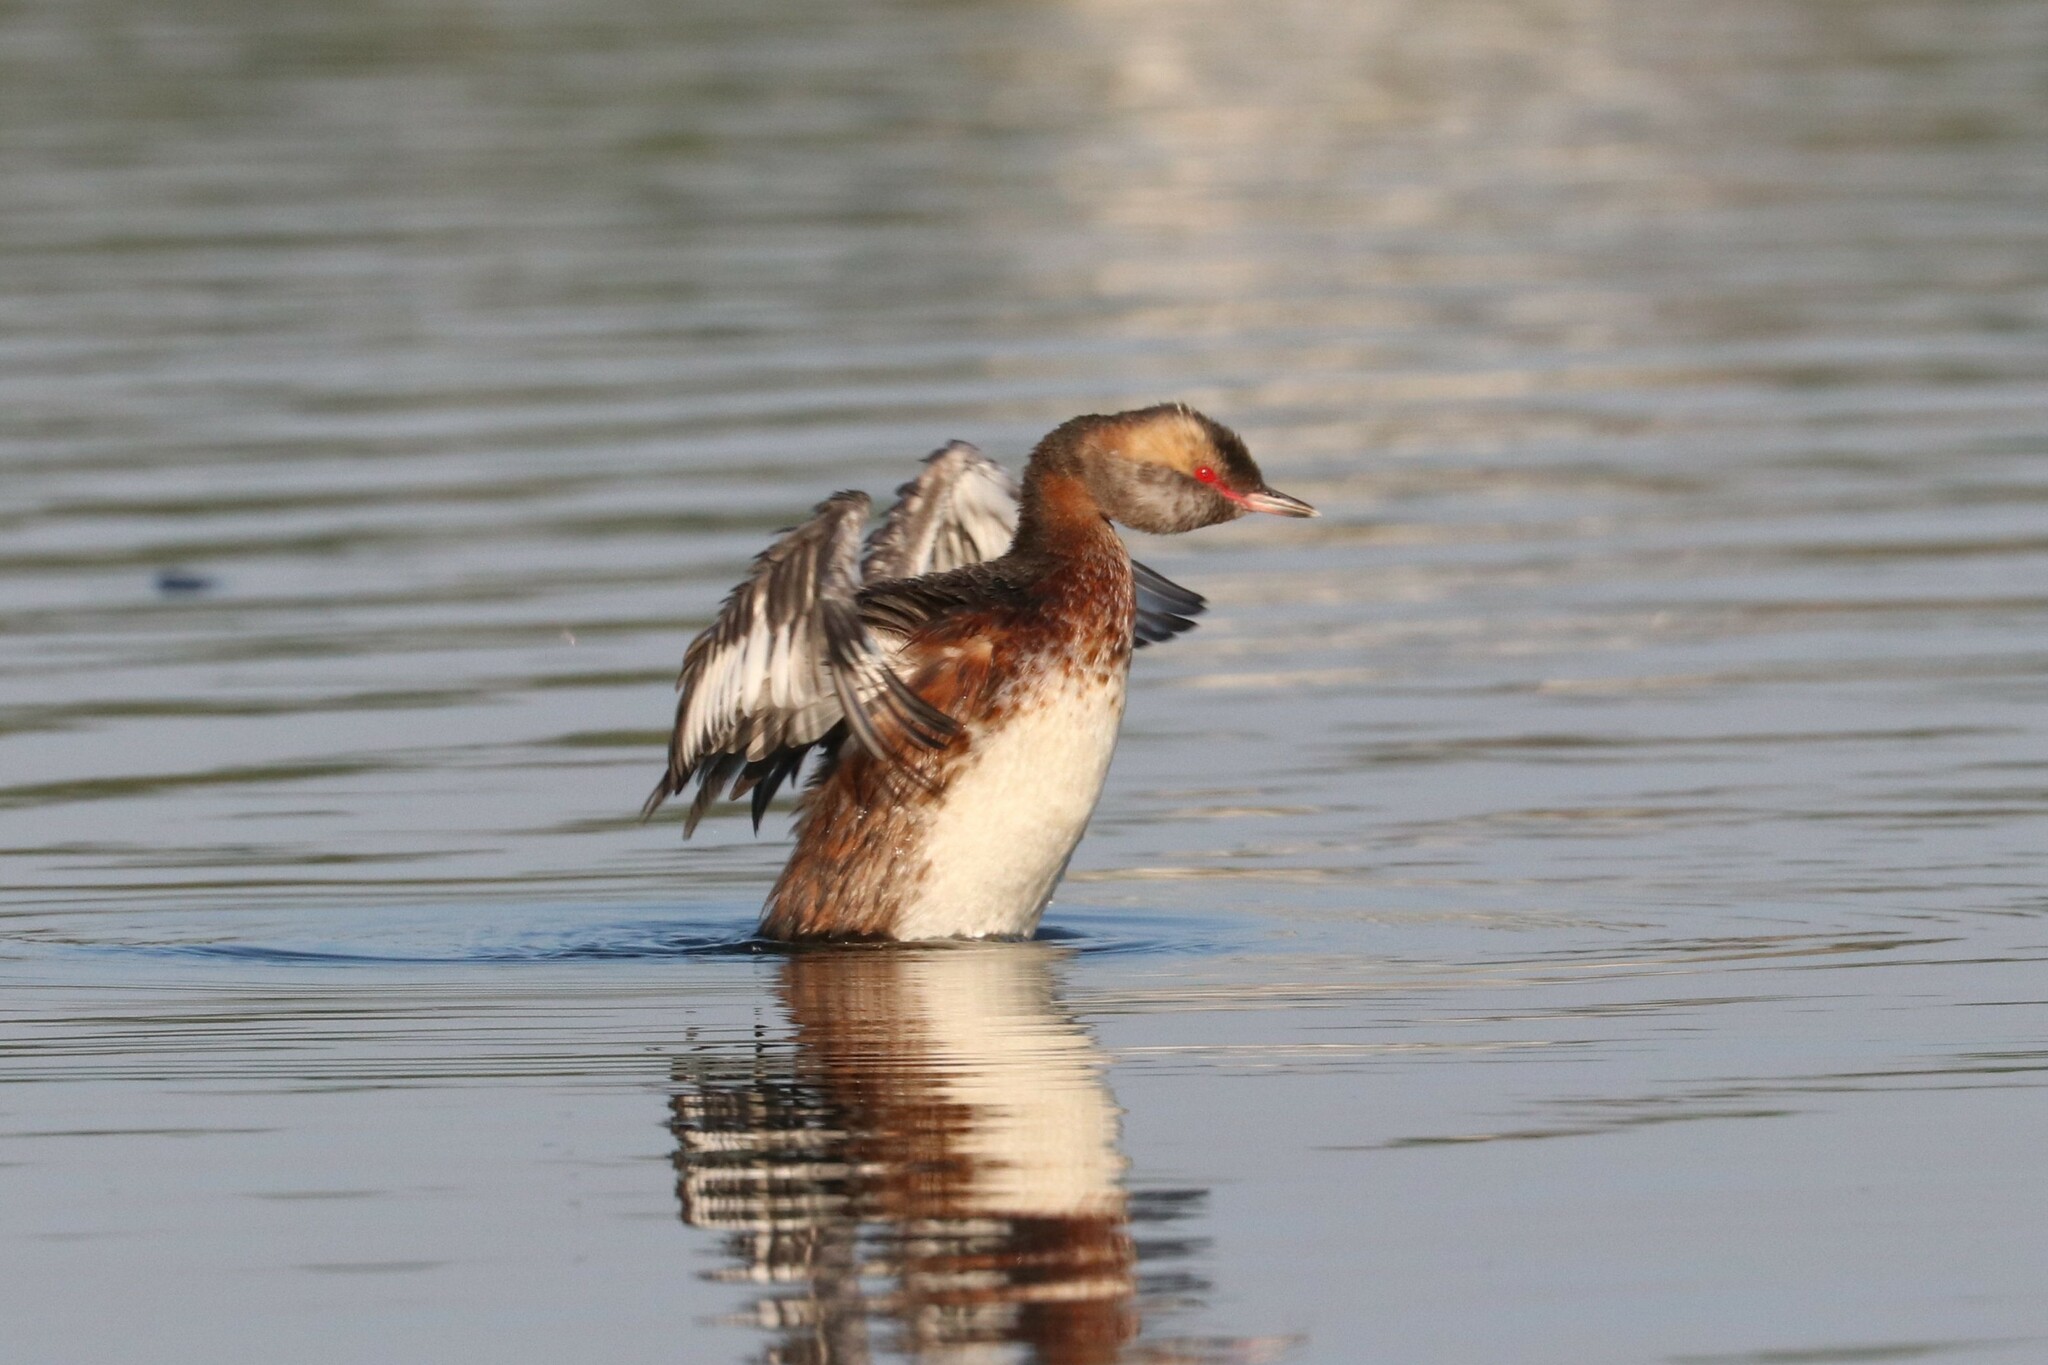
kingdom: Animalia
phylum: Chordata
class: Aves
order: Podicipediformes
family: Podicipedidae
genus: Podiceps
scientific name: Podiceps auritus
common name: Horned grebe
